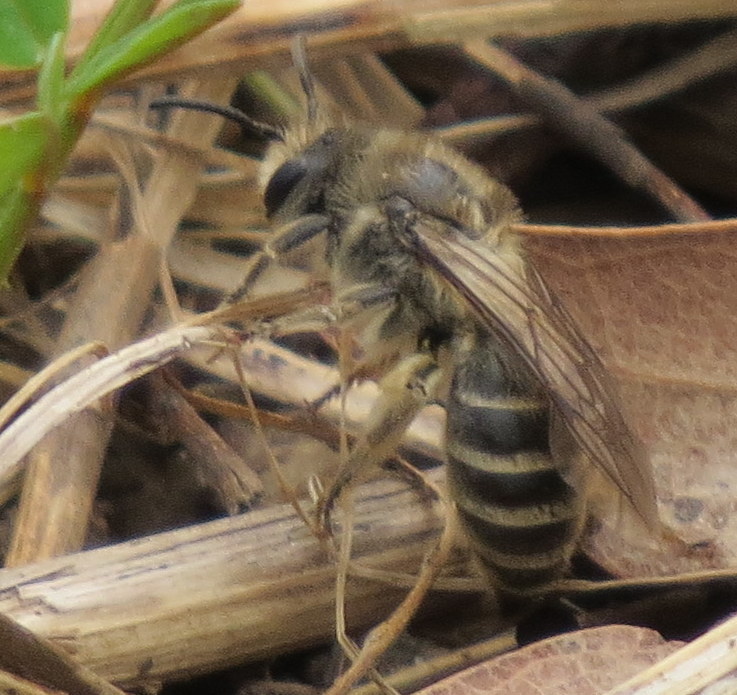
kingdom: Animalia
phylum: Arthropoda
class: Insecta
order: Hymenoptera
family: Colletidae
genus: Colletes
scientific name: Colletes inaequalis
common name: Unequal cellophane bee
